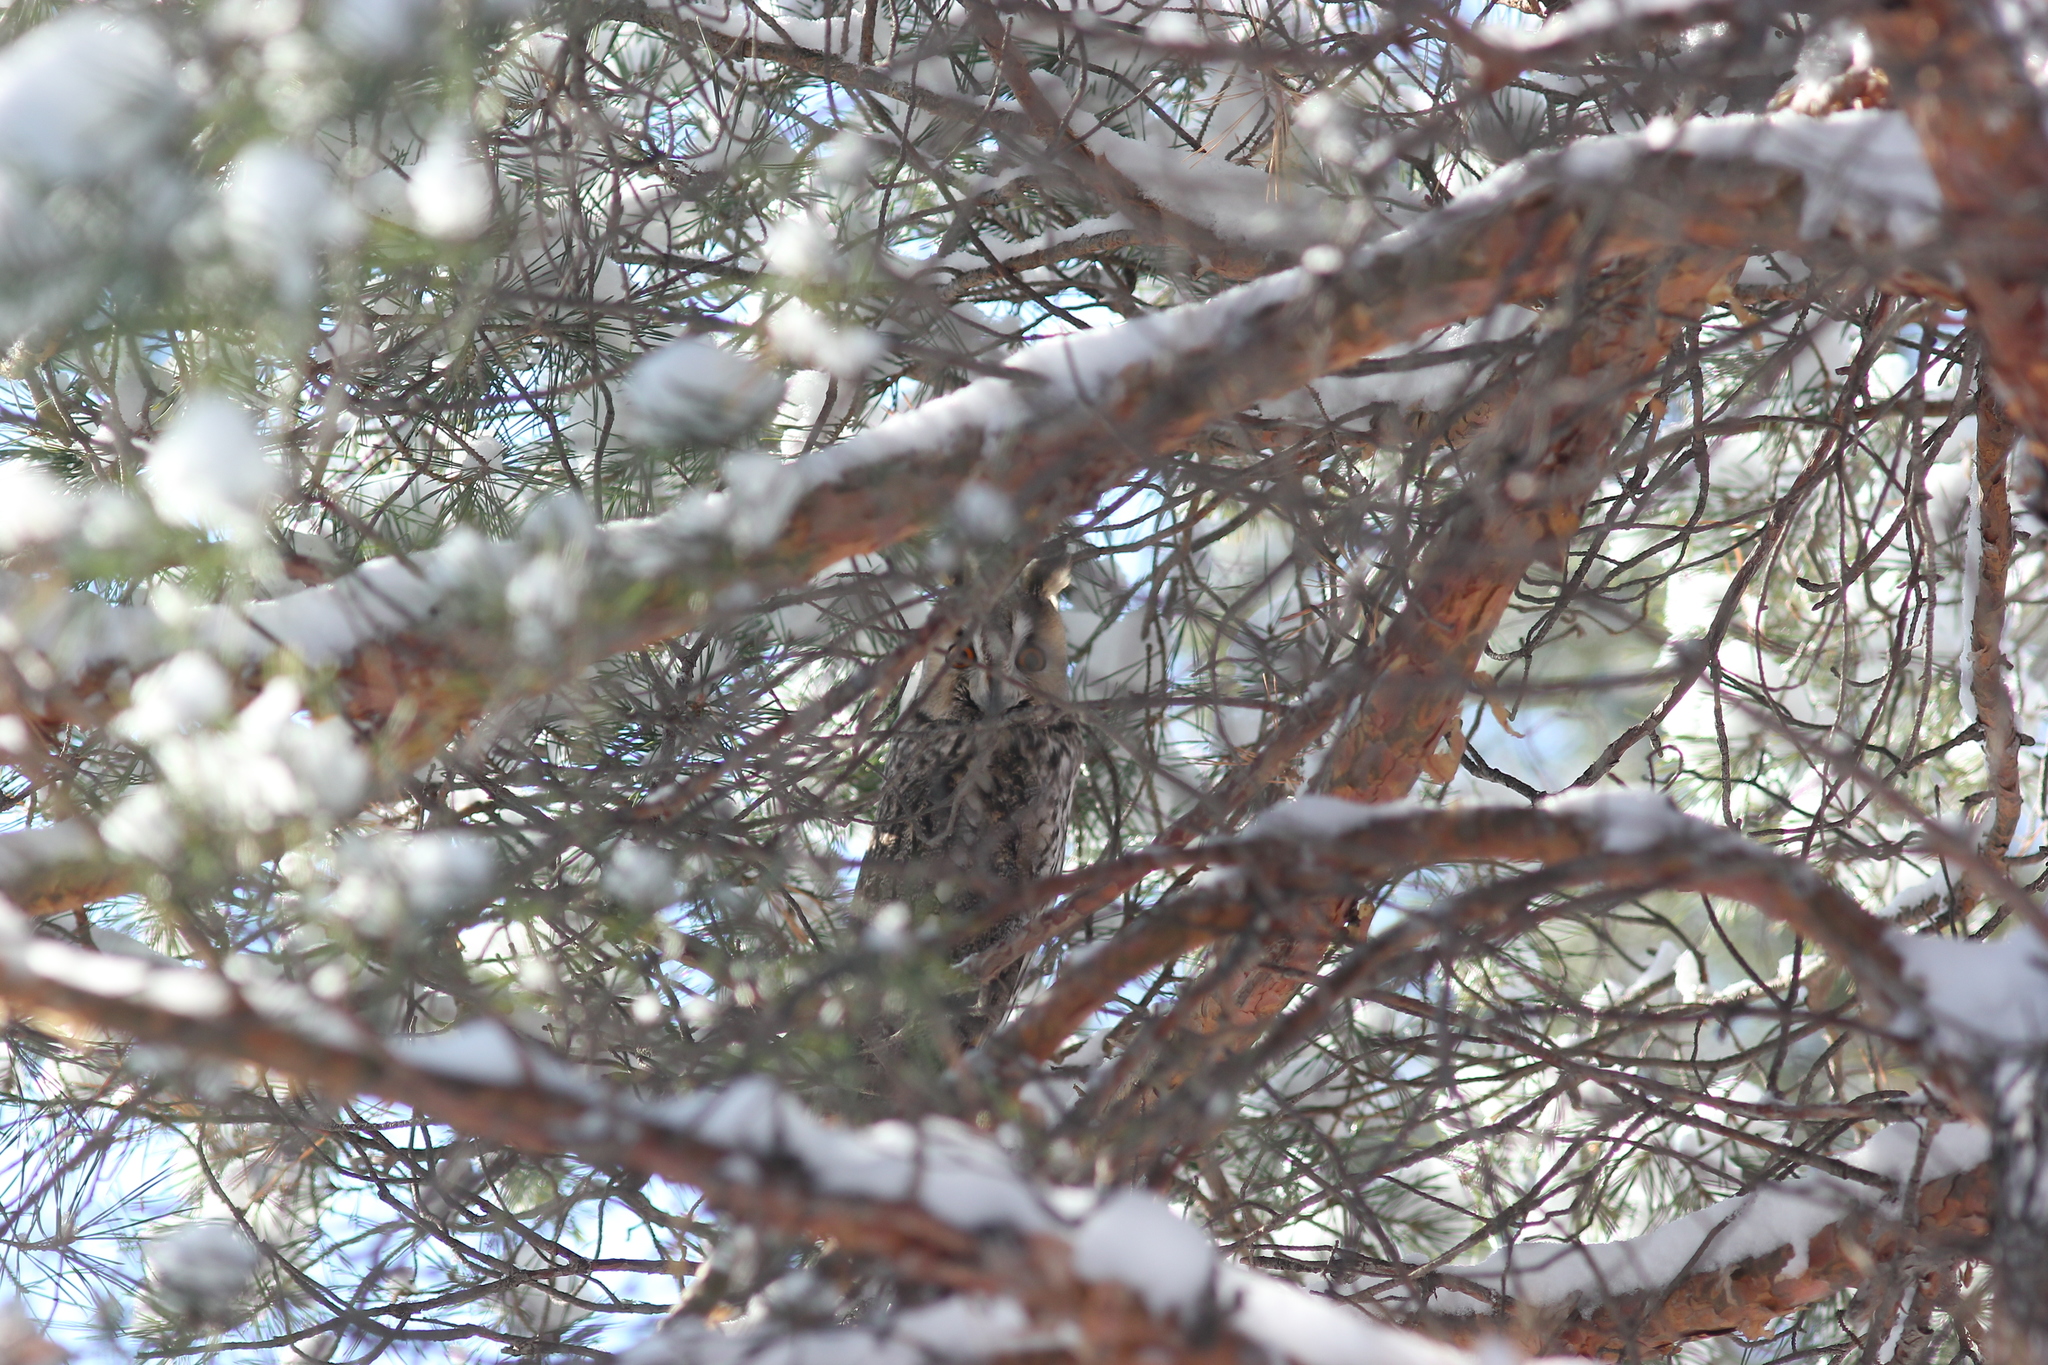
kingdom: Animalia
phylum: Chordata
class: Aves
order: Strigiformes
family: Strigidae
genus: Asio
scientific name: Asio otus
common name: Long-eared owl
